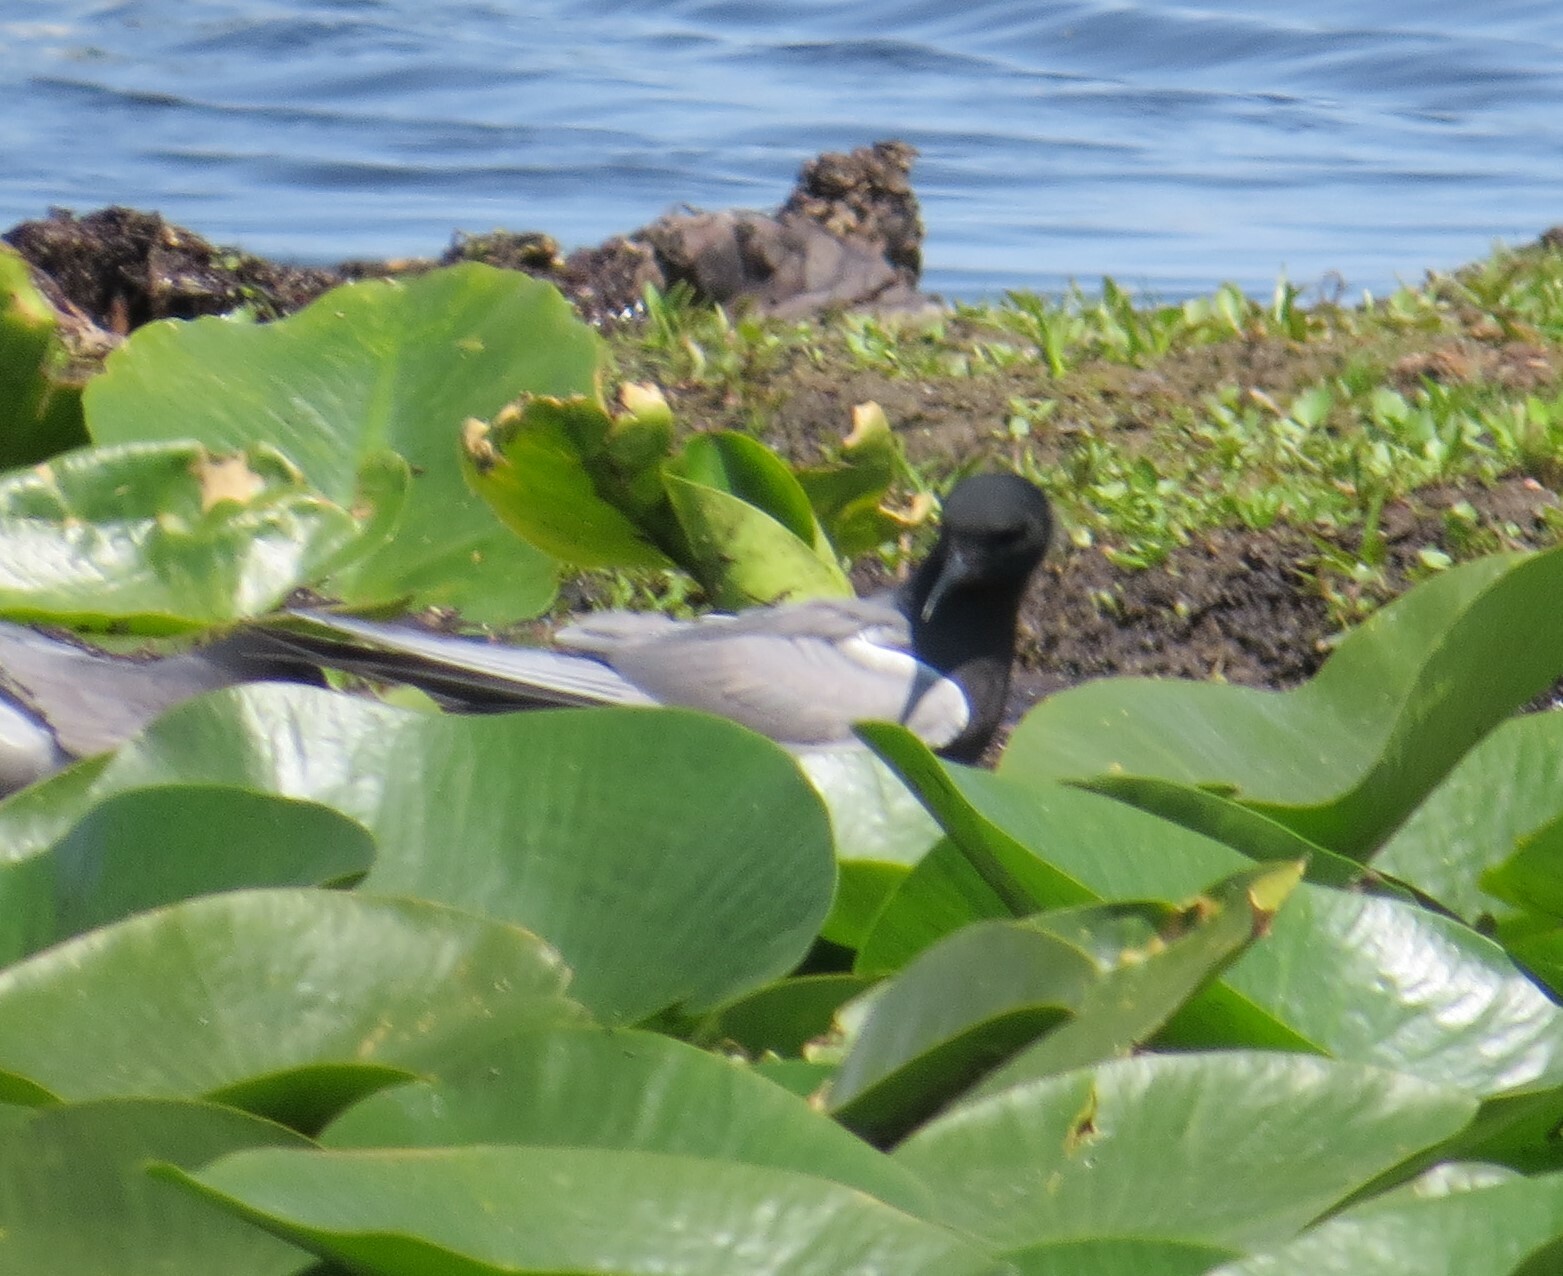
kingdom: Animalia
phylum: Chordata
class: Aves
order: Charadriiformes
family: Laridae
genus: Chlidonias
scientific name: Chlidonias niger
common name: Black tern
